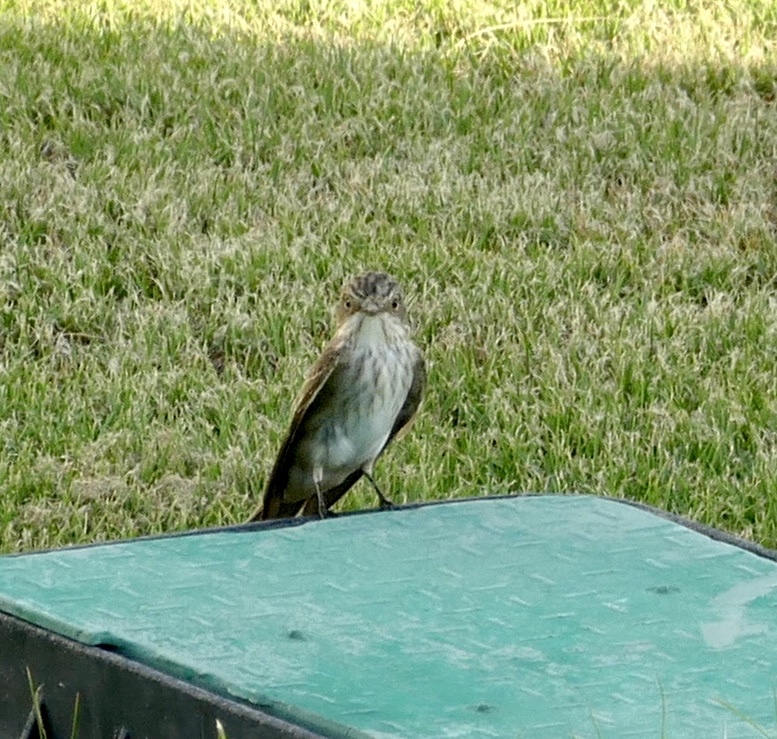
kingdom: Animalia
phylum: Chordata
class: Aves
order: Passeriformes
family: Muscicapidae
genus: Muscicapa
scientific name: Muscicapa striata
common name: Spotted flycatcher
